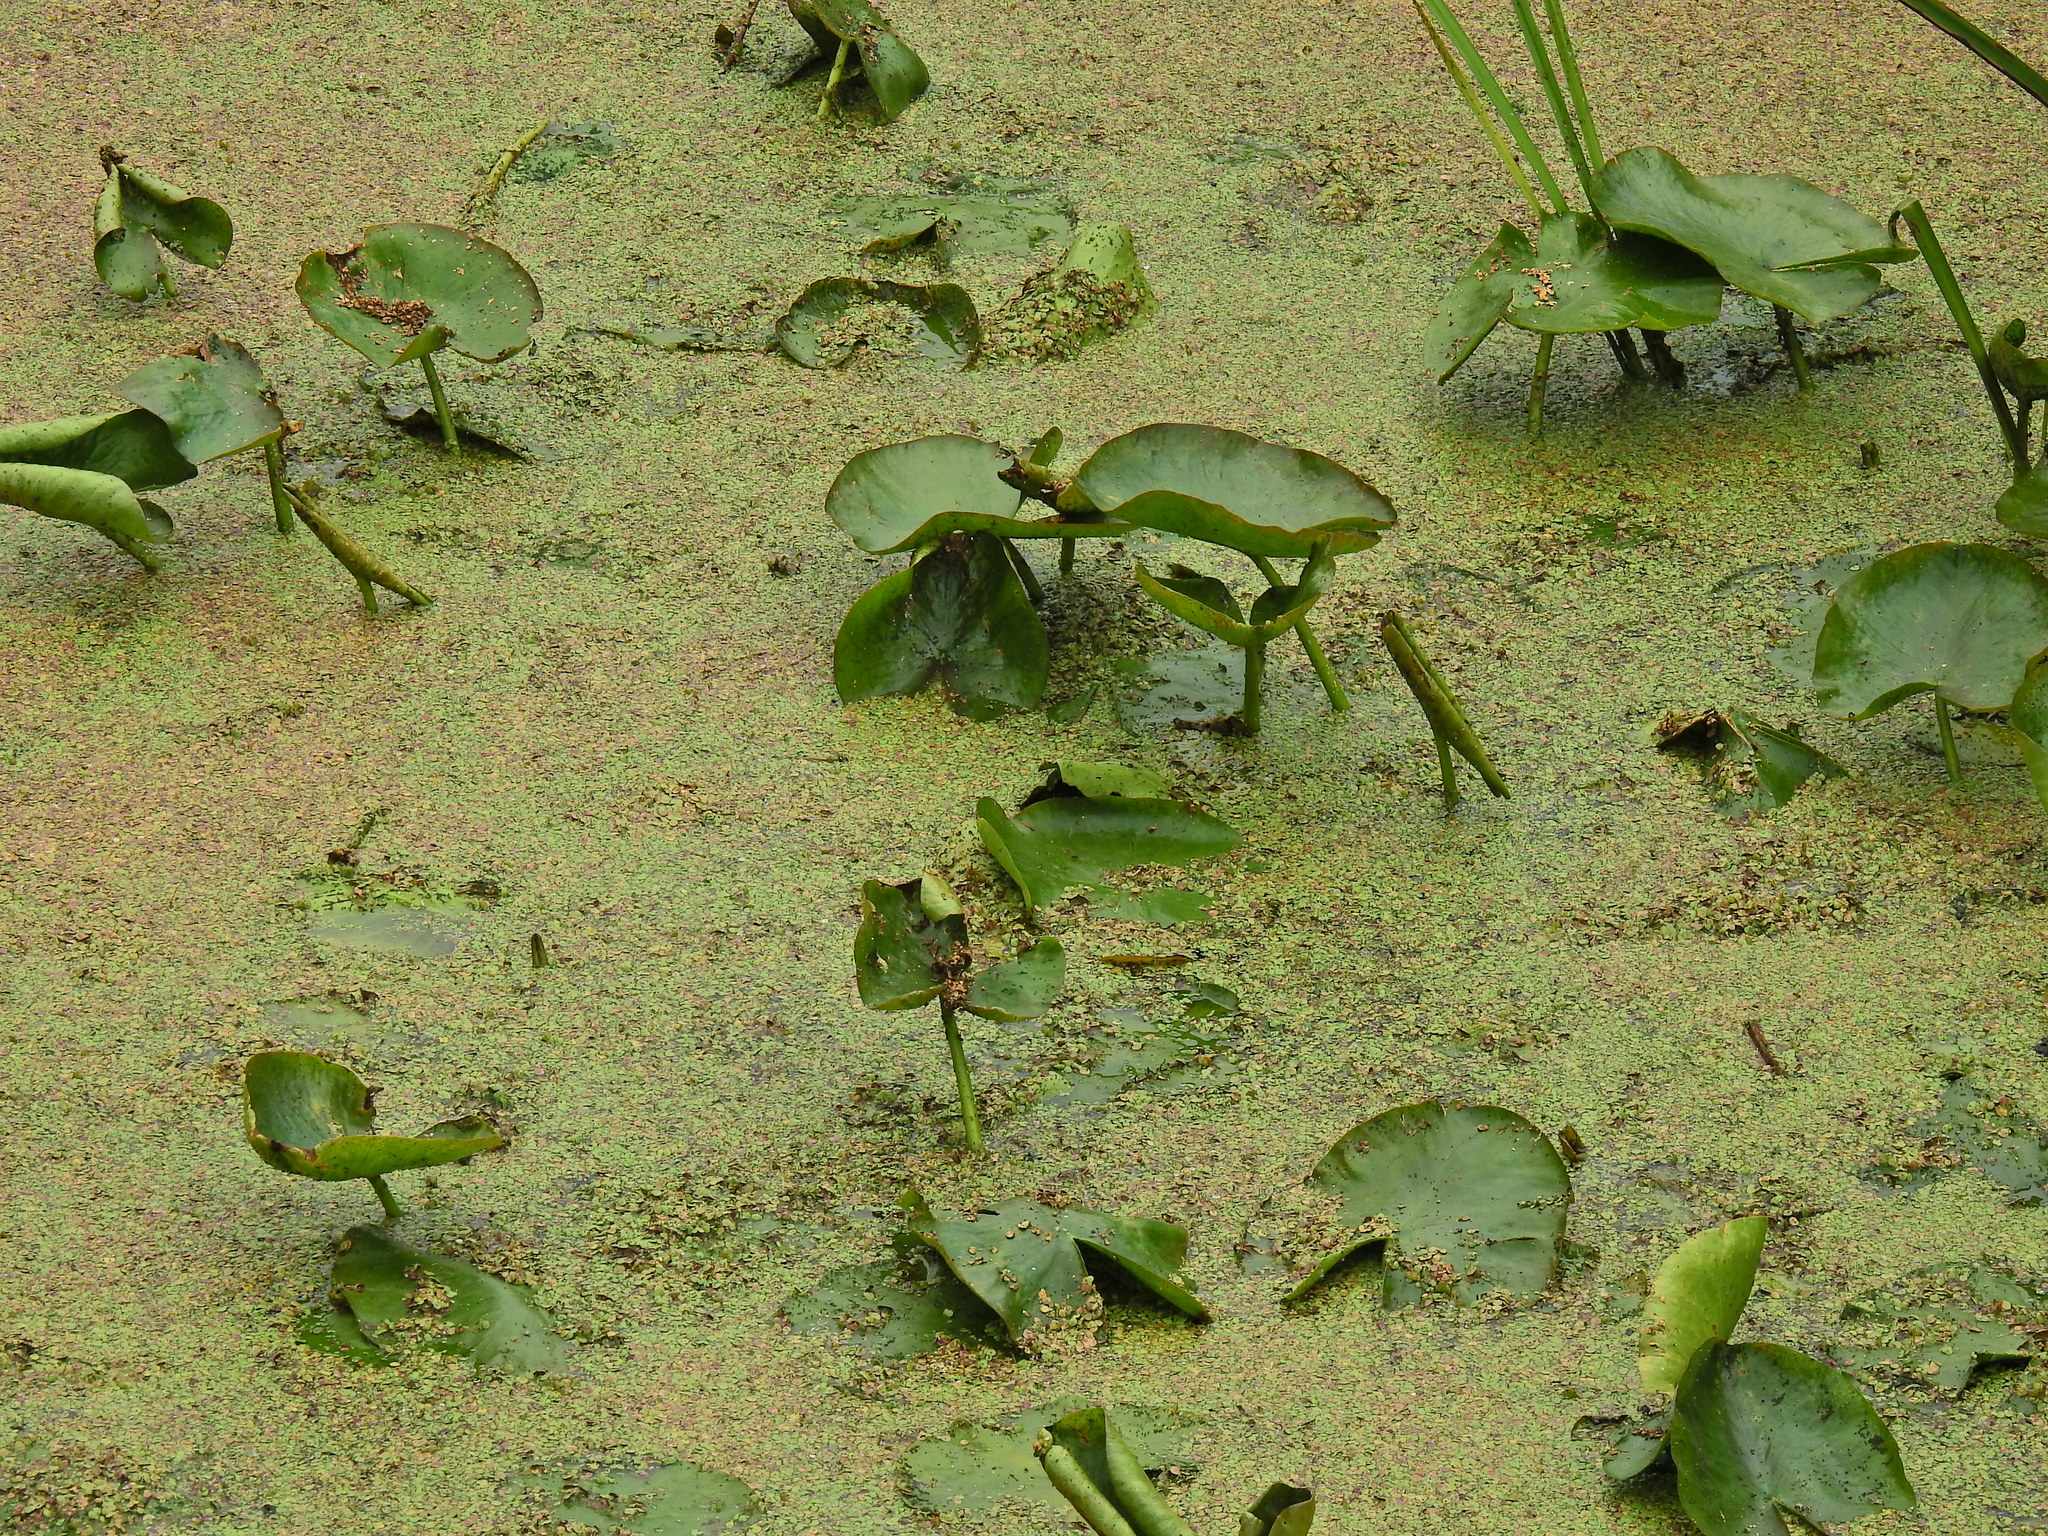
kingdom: Plantae
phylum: Tracheophyta
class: Magnoliopsida
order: Nymphaeales
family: Nymphaeaceae
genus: Nymphaea
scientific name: Nymphaea alba
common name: White water-lily
